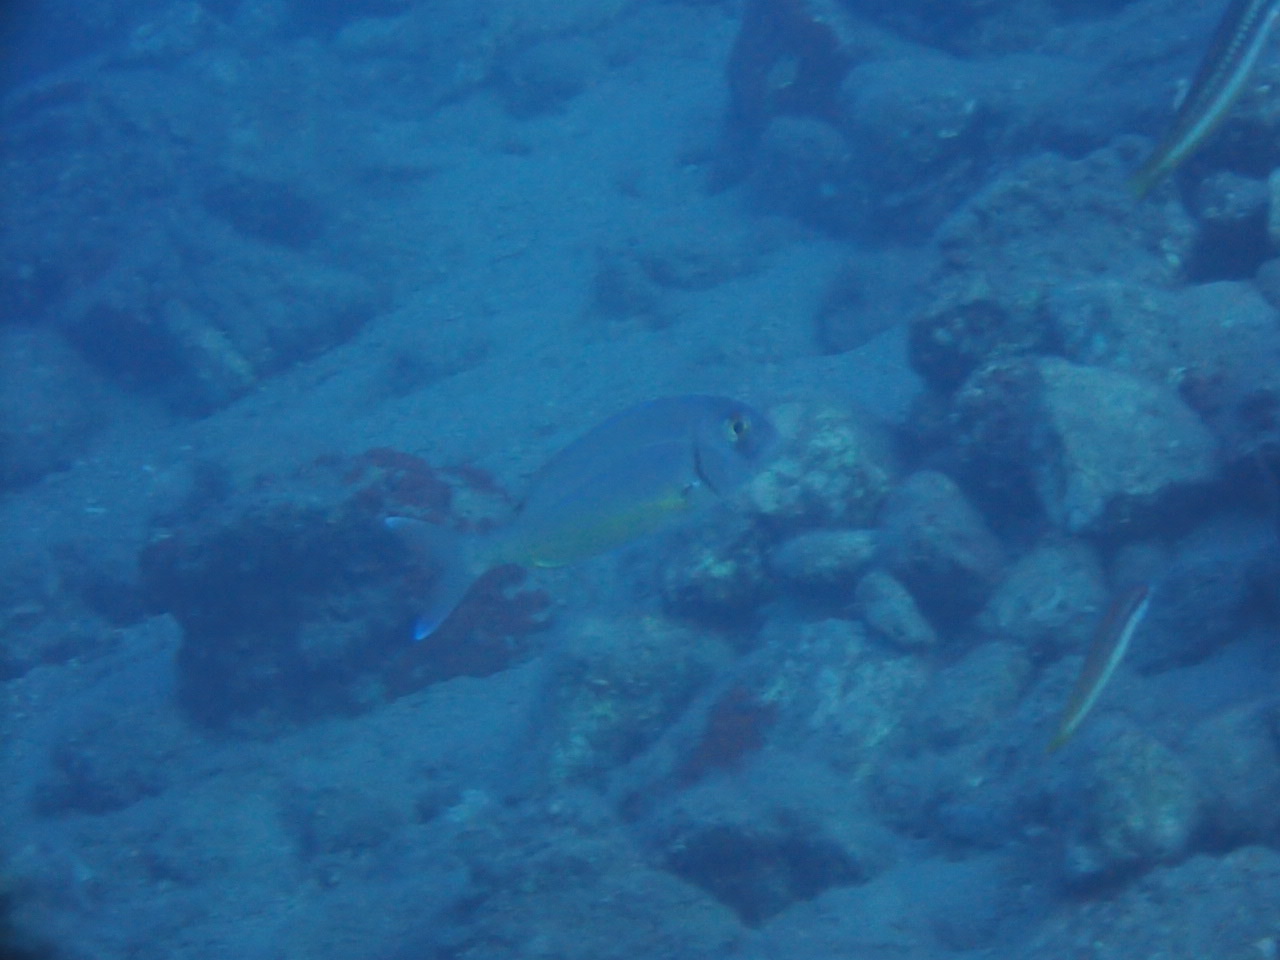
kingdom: Animalia
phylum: Chordata
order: Perciformes
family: Sparidae
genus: Pagrus
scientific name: Pagrus pagrus
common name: Red porgy
